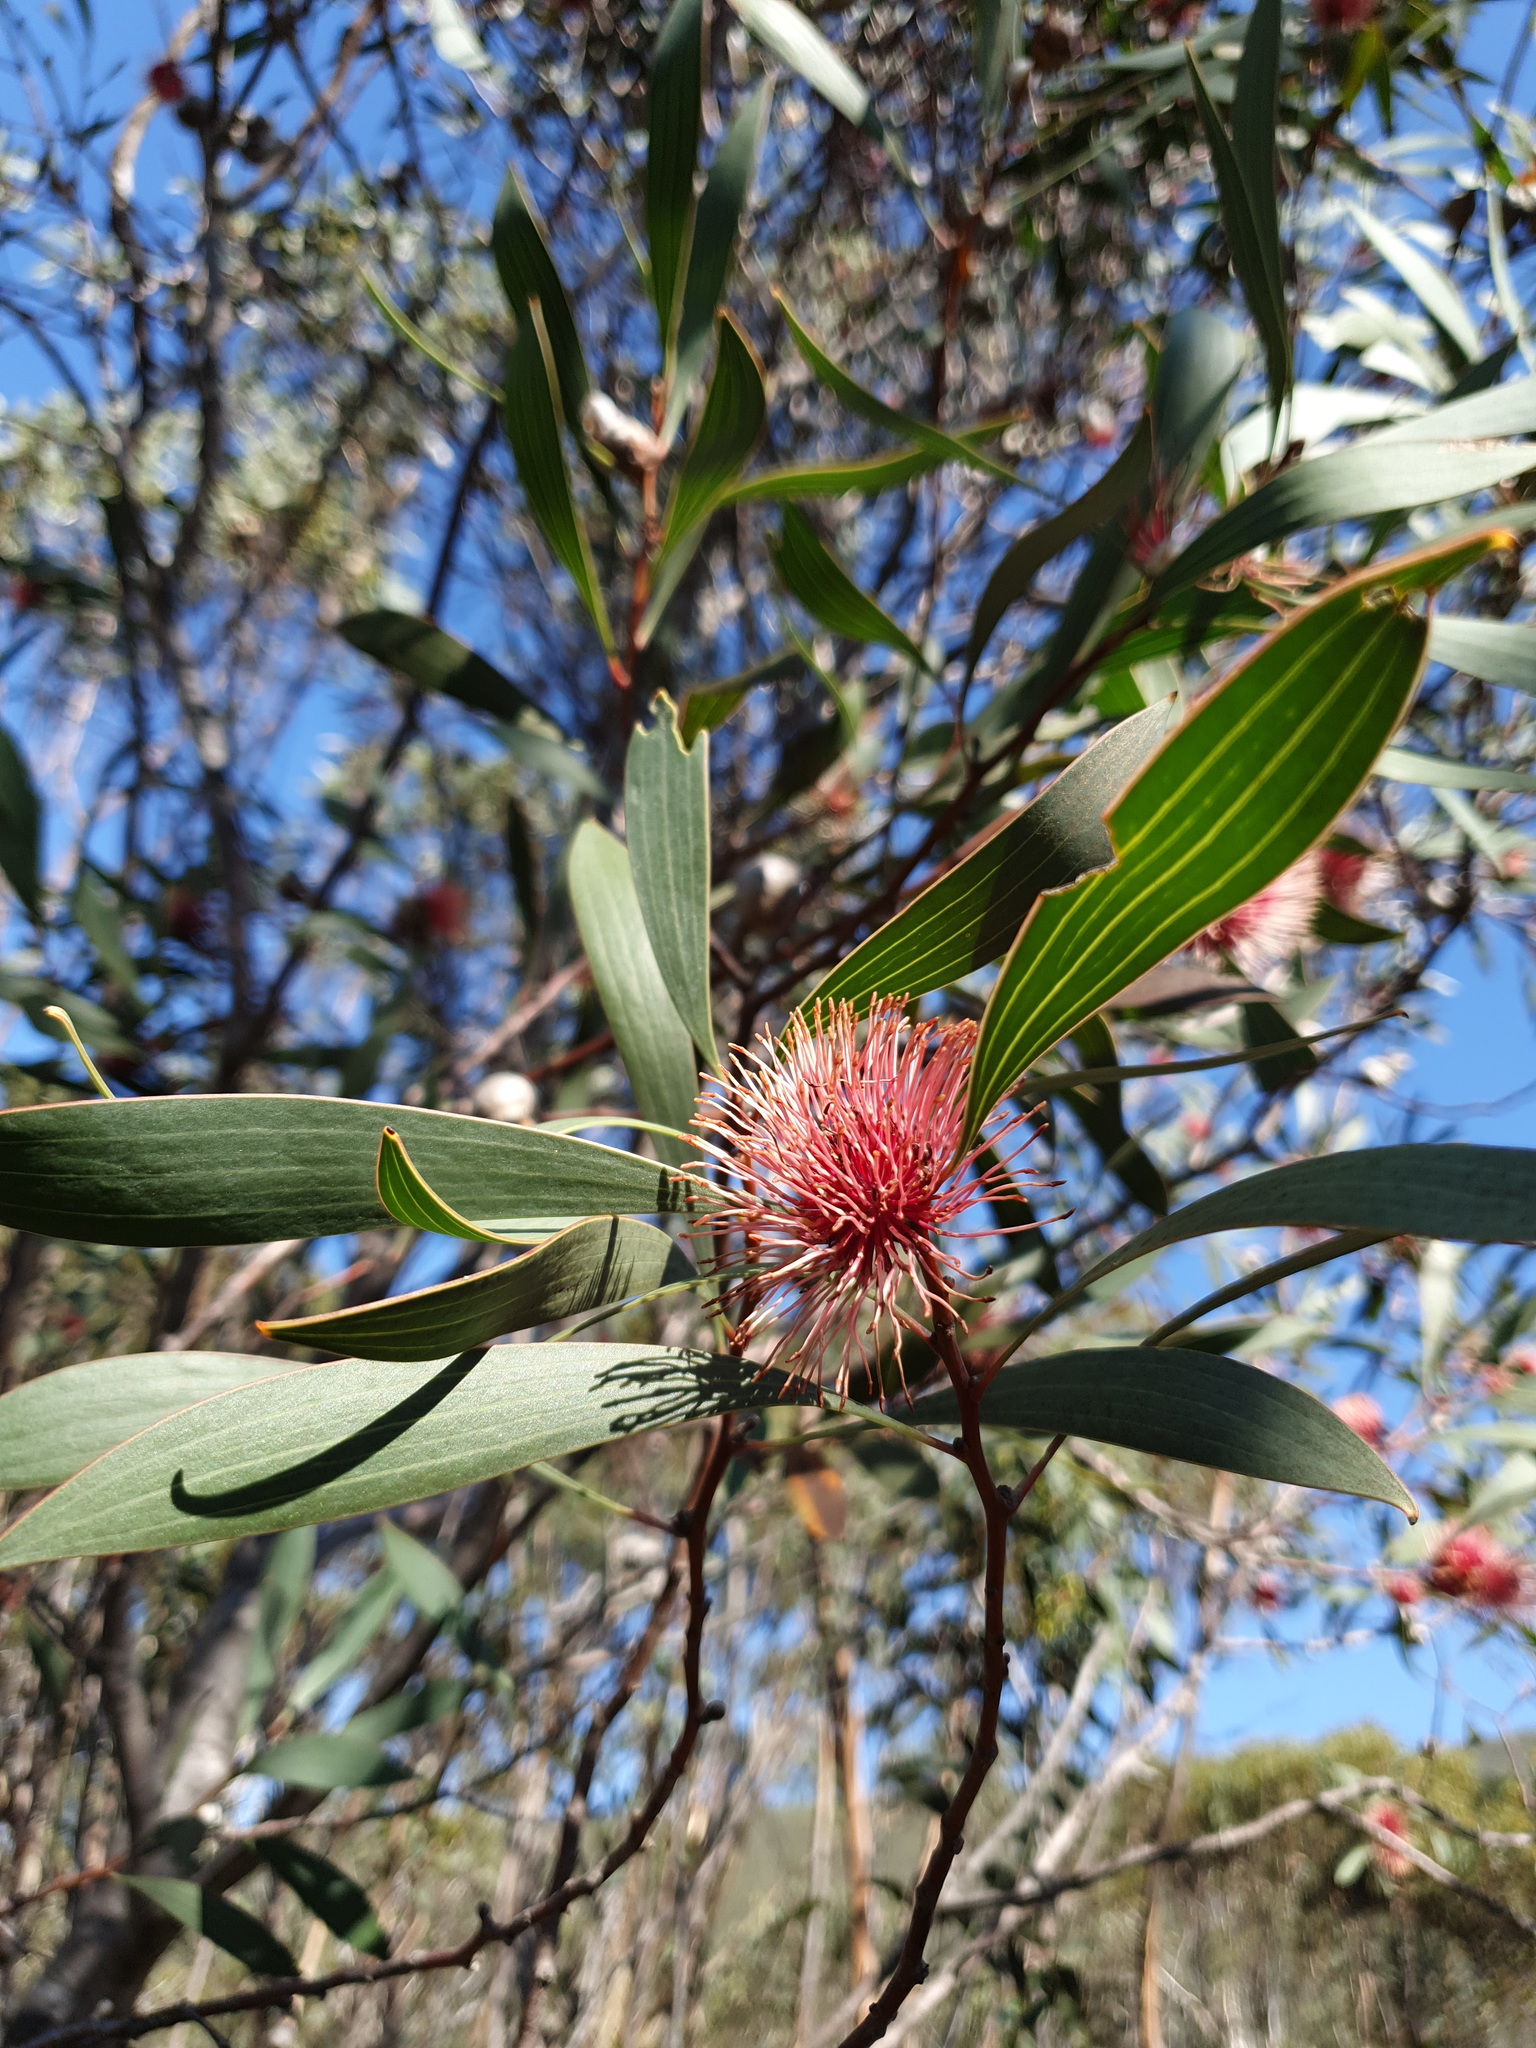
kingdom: Plantae
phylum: Tracheophyta
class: Magnoliopsida
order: Proteales
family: Proteaceae
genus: Hakea
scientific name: Hakea laurina
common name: Cushion hakea
